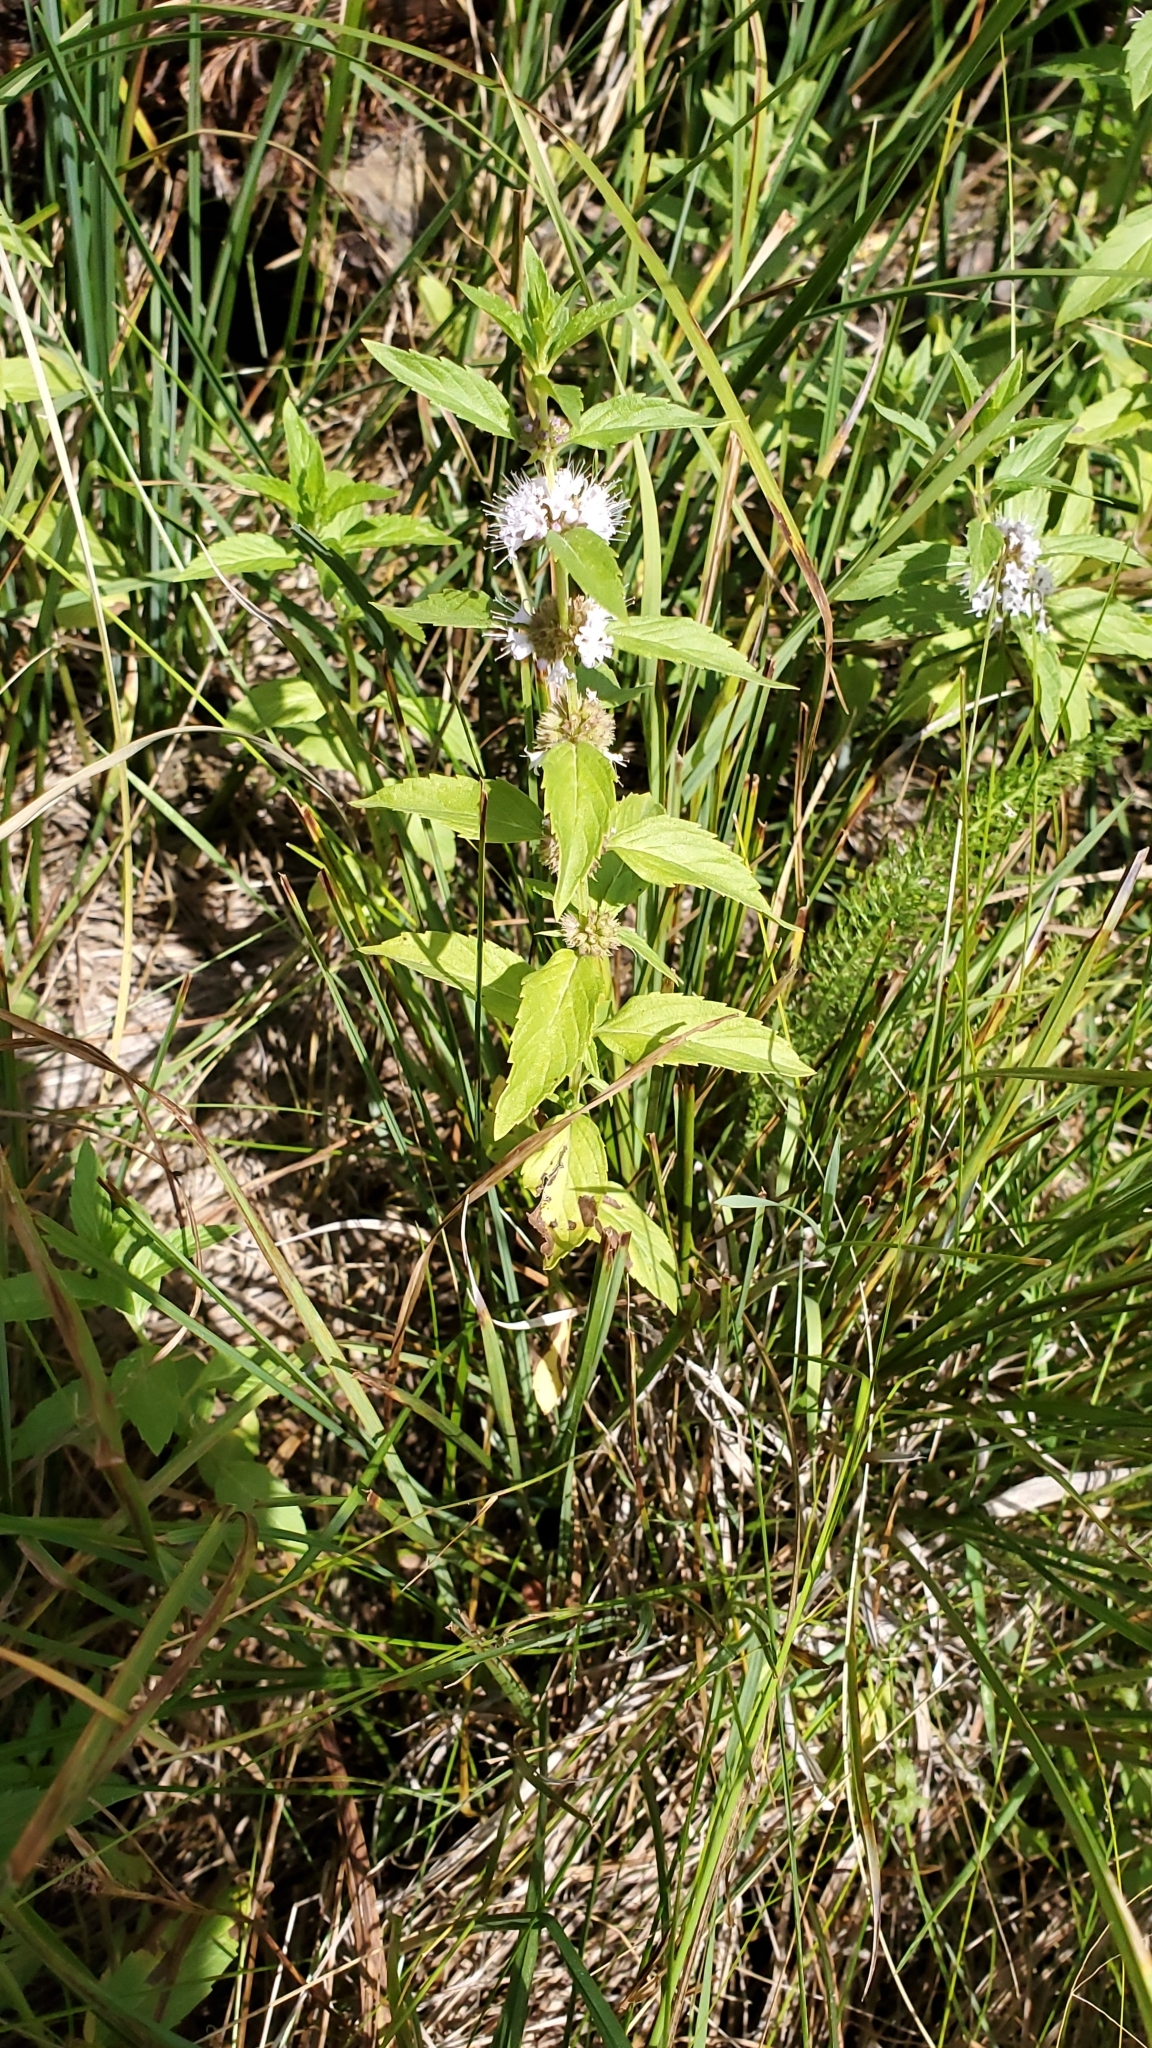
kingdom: Plantae
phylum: Tracheophyta
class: Magnoliopsida
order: Lamiales
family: Lamiaceae
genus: Mentha
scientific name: Mentha canadensis
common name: American corn mint
